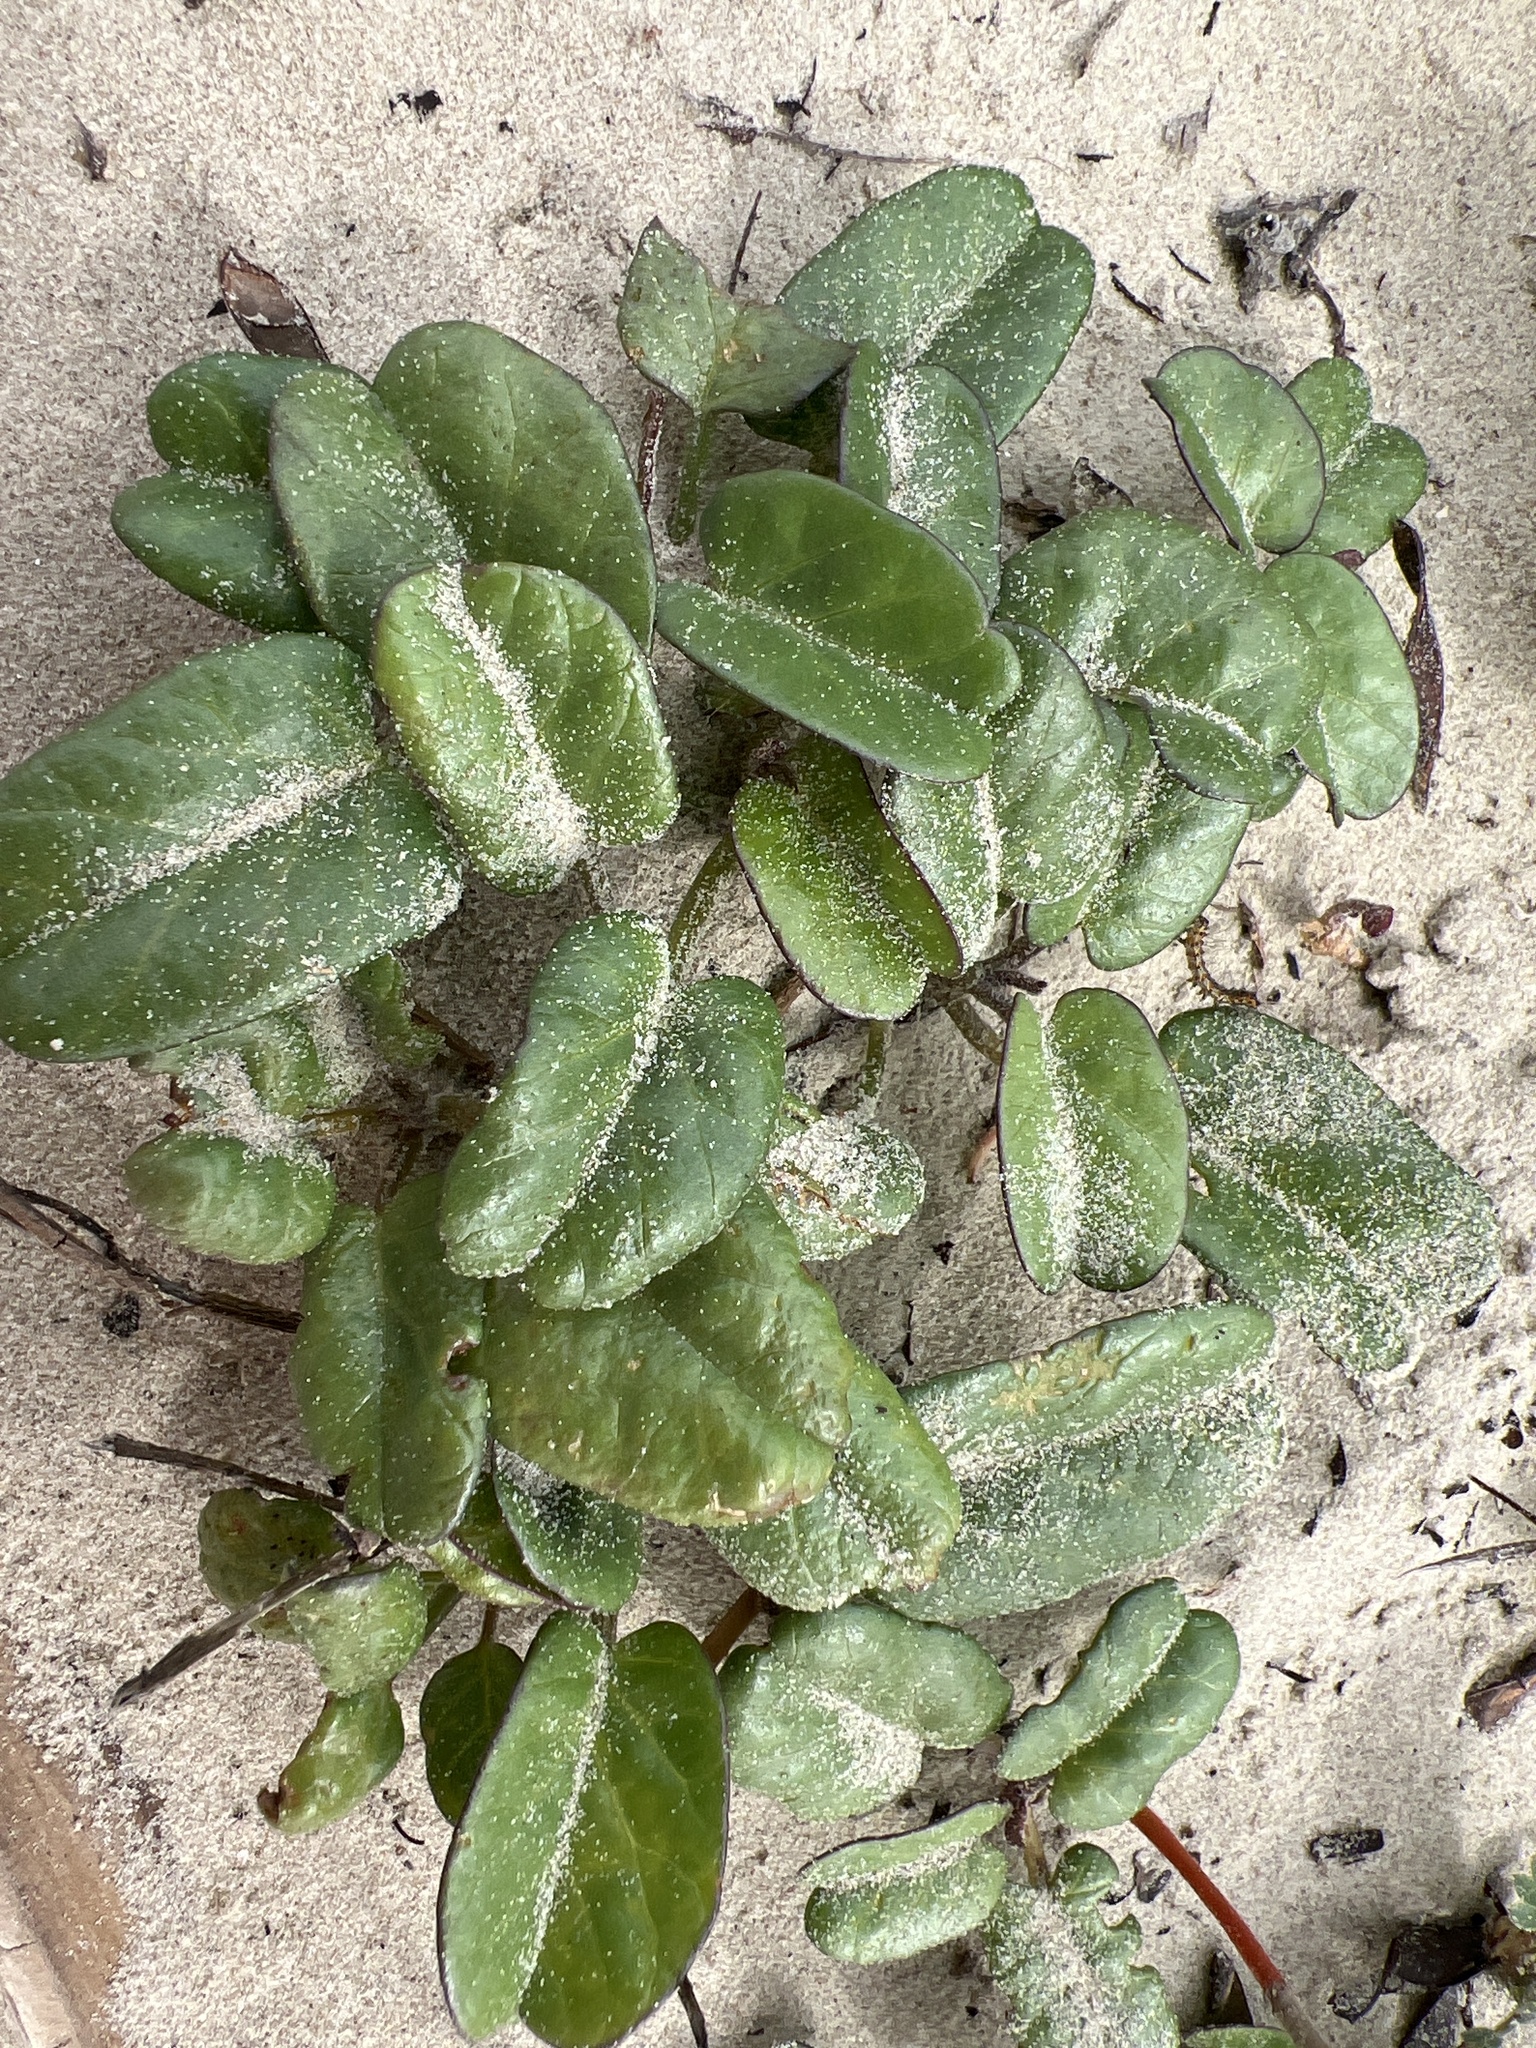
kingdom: Plantae
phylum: Tracheophyta
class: Magnoliopsida
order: Solanales
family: Convolvulaceae
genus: Ipomoea
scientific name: Ipomoea imperati
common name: Fiddle-leaf morning-glory
